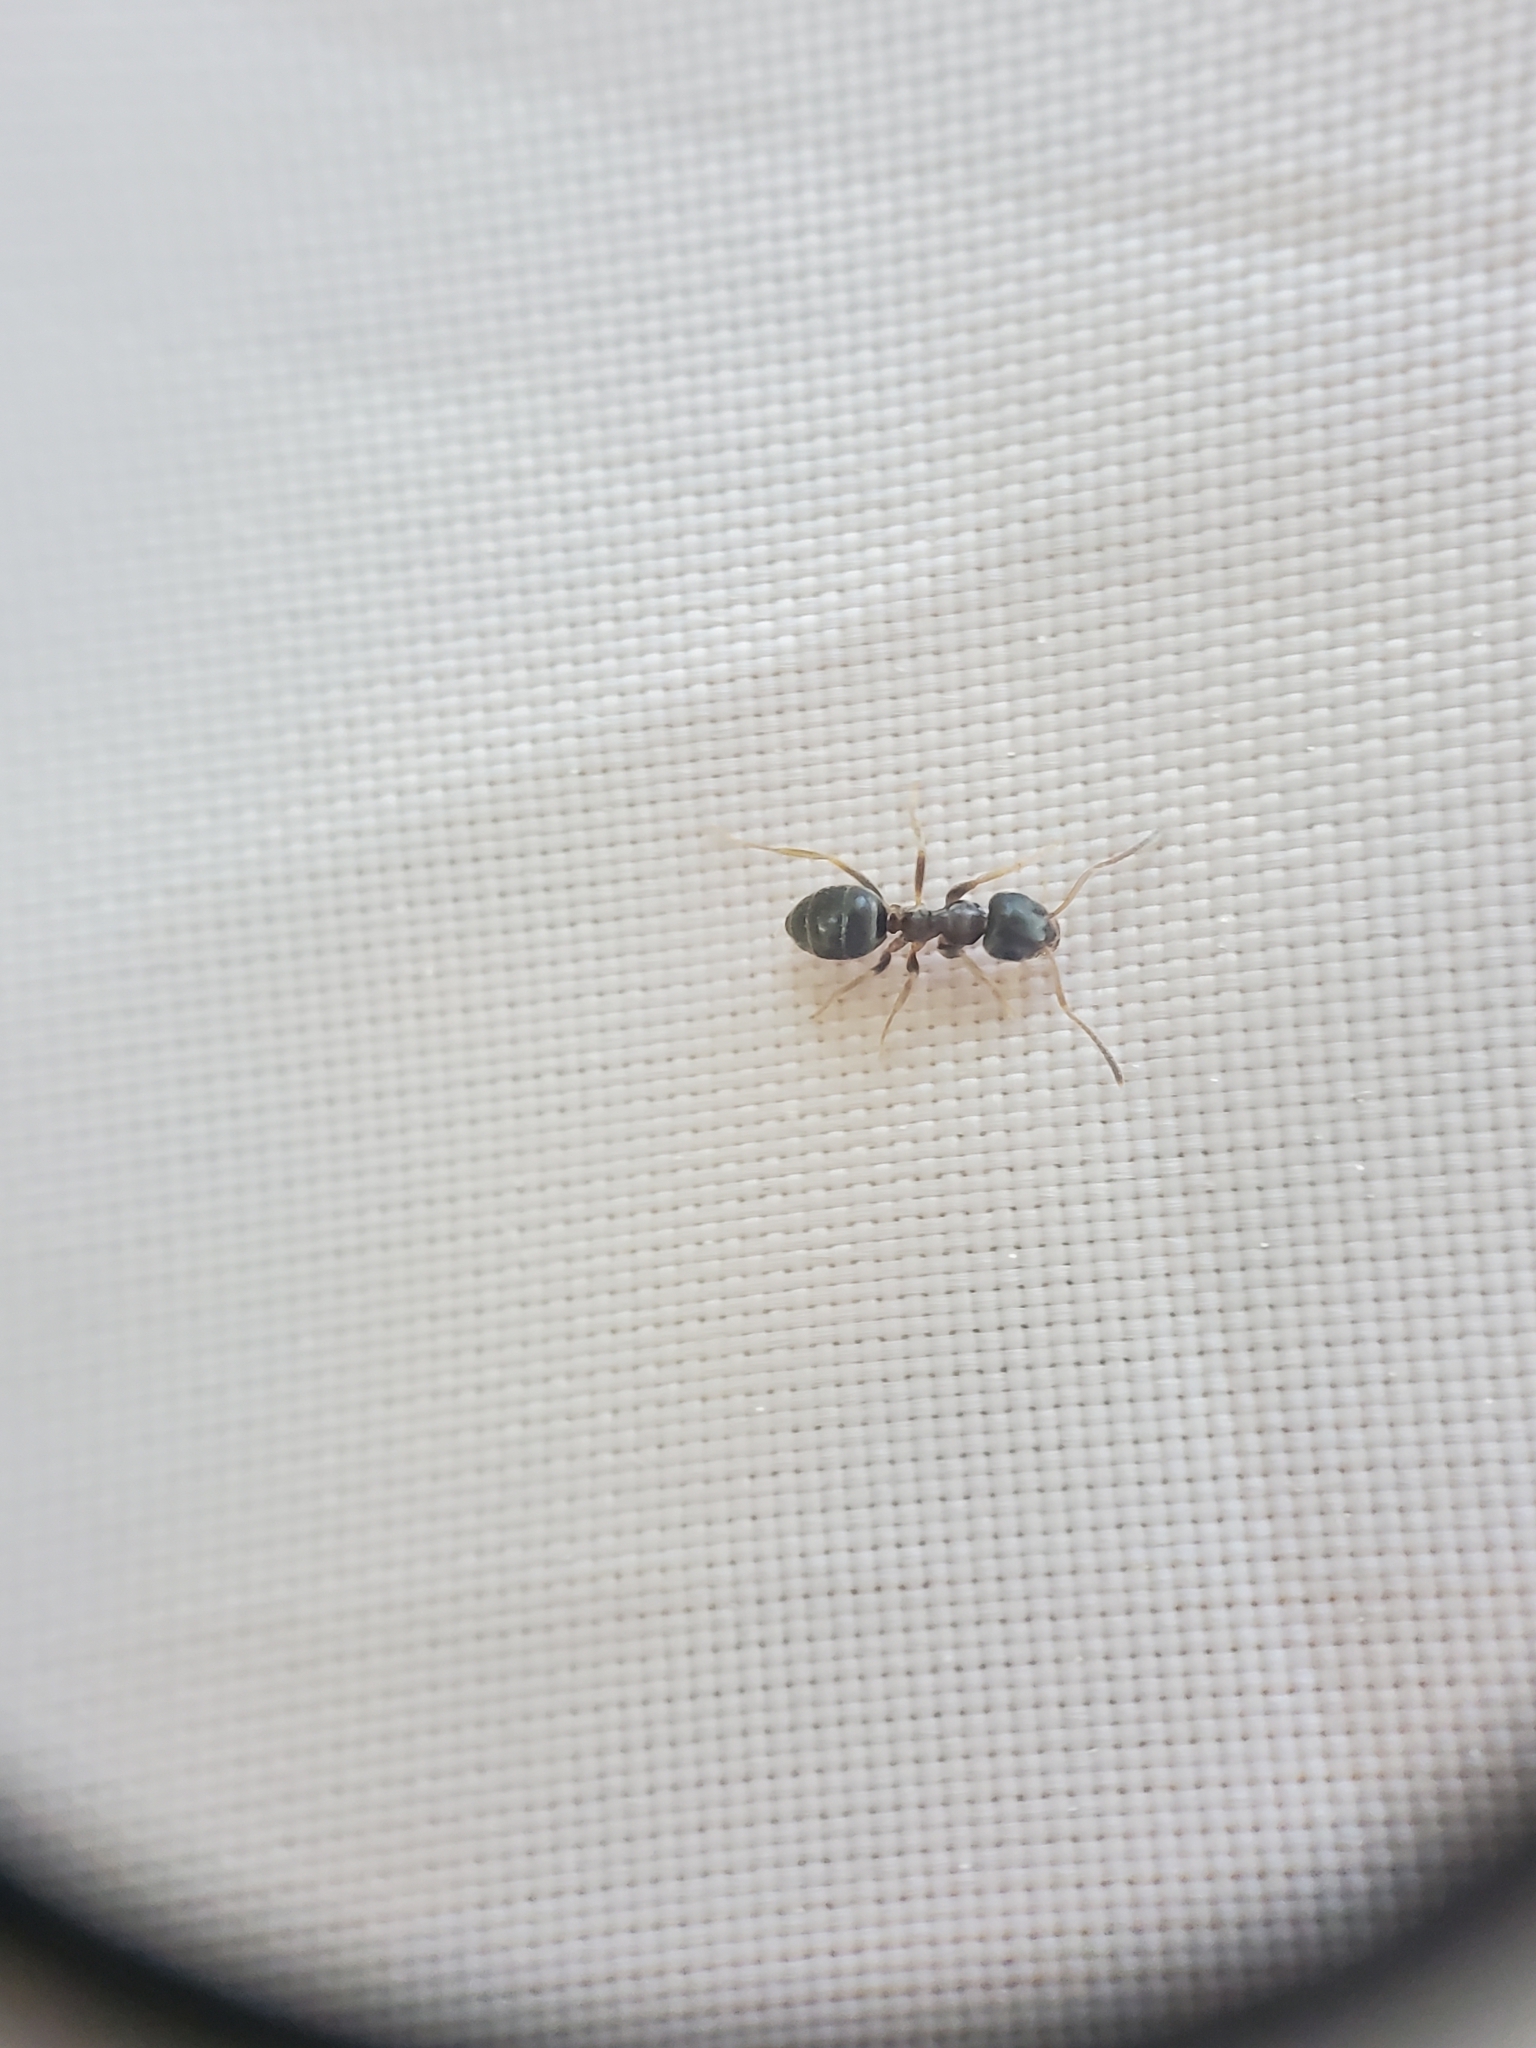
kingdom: Animalia
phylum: Arthropoda
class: Insecta
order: Hymenoptera
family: Formicidae
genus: Lasius
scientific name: Lasius americanus
